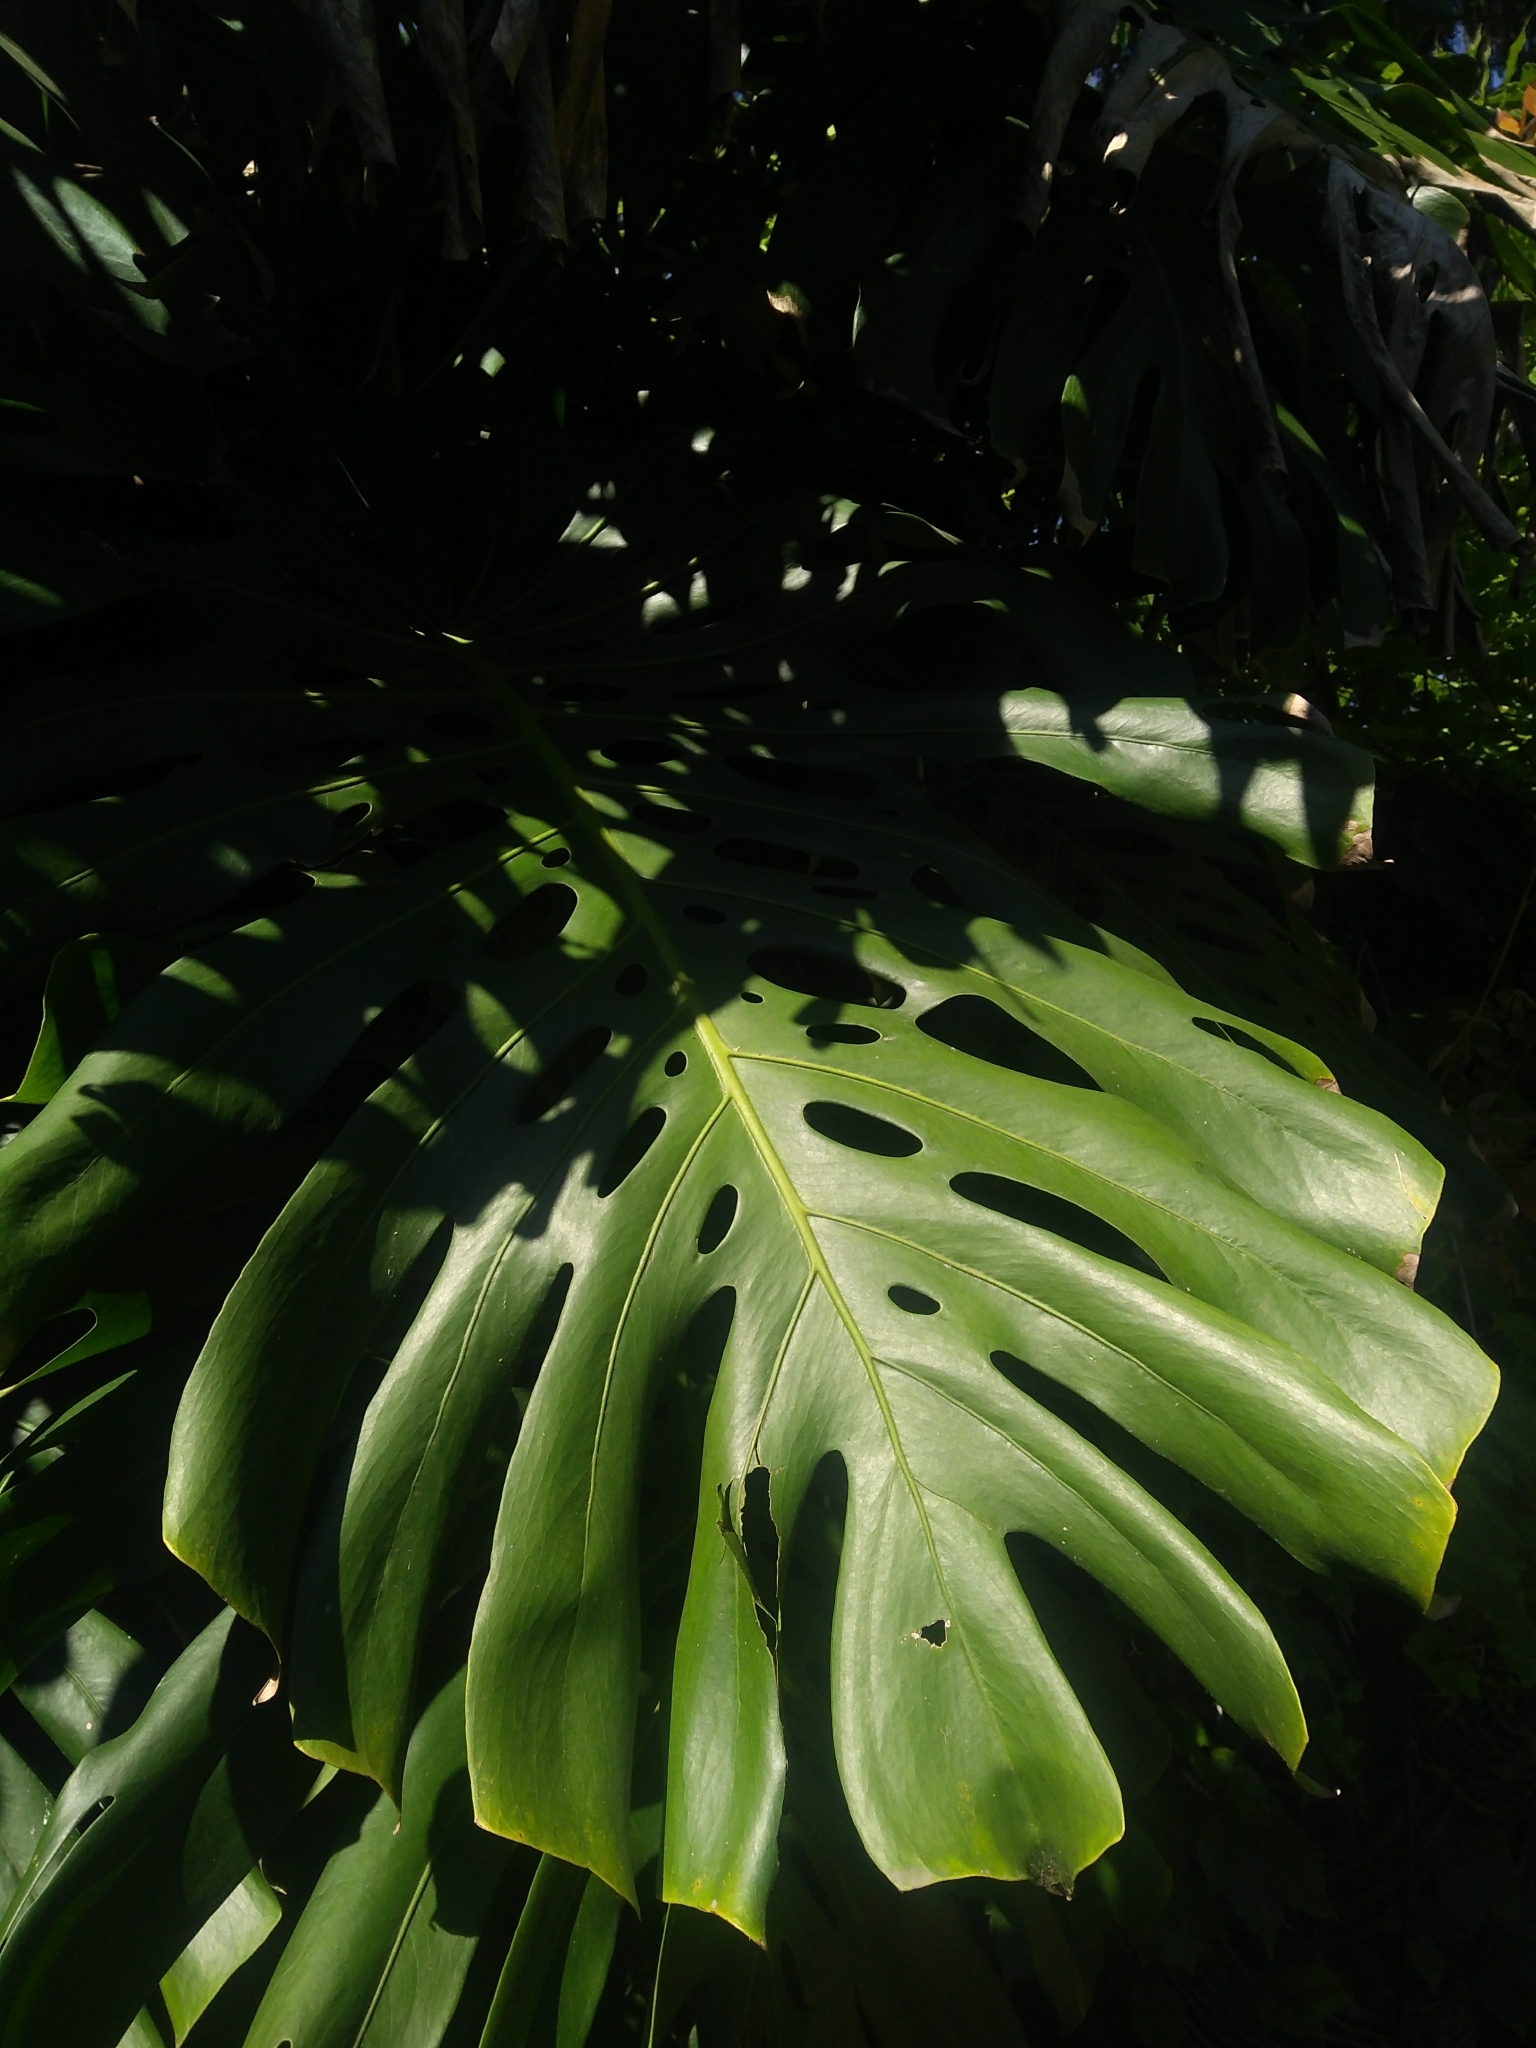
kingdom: Plantae
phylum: Tracheophyta
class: Liliopsida
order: Alismatales
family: Araceae
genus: Monstera
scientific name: Monstera deliciosa
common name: Cut-leaf-philodendron
